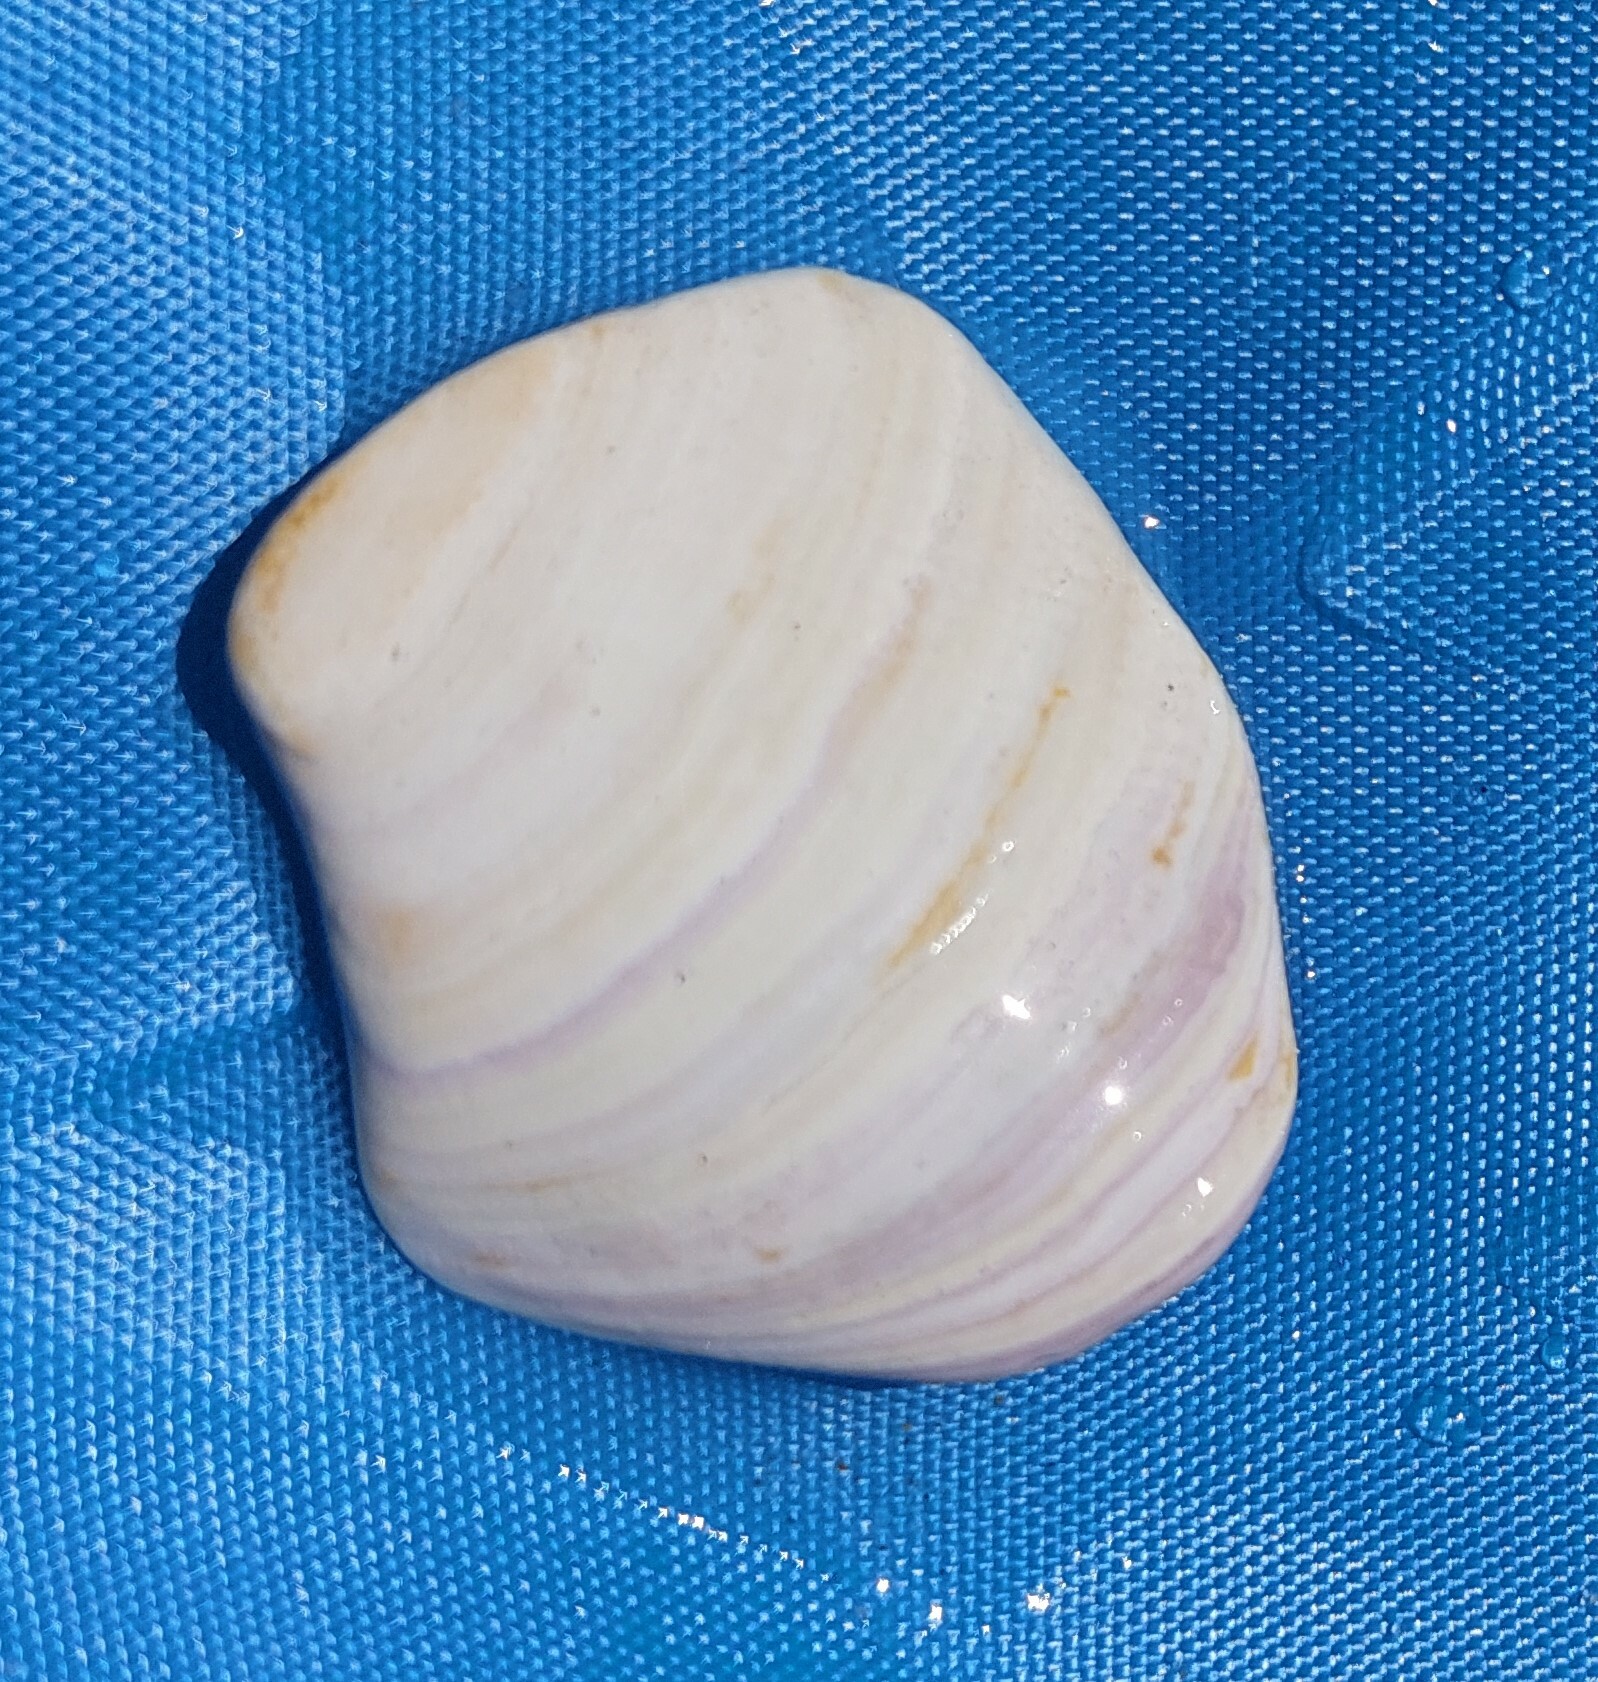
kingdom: Animalia
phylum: Mollusca
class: Bivalvia
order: Venerida
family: Veneridae
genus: Mercenaria
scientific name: Mercenaria mercenaria
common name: American hard-shelled clam
